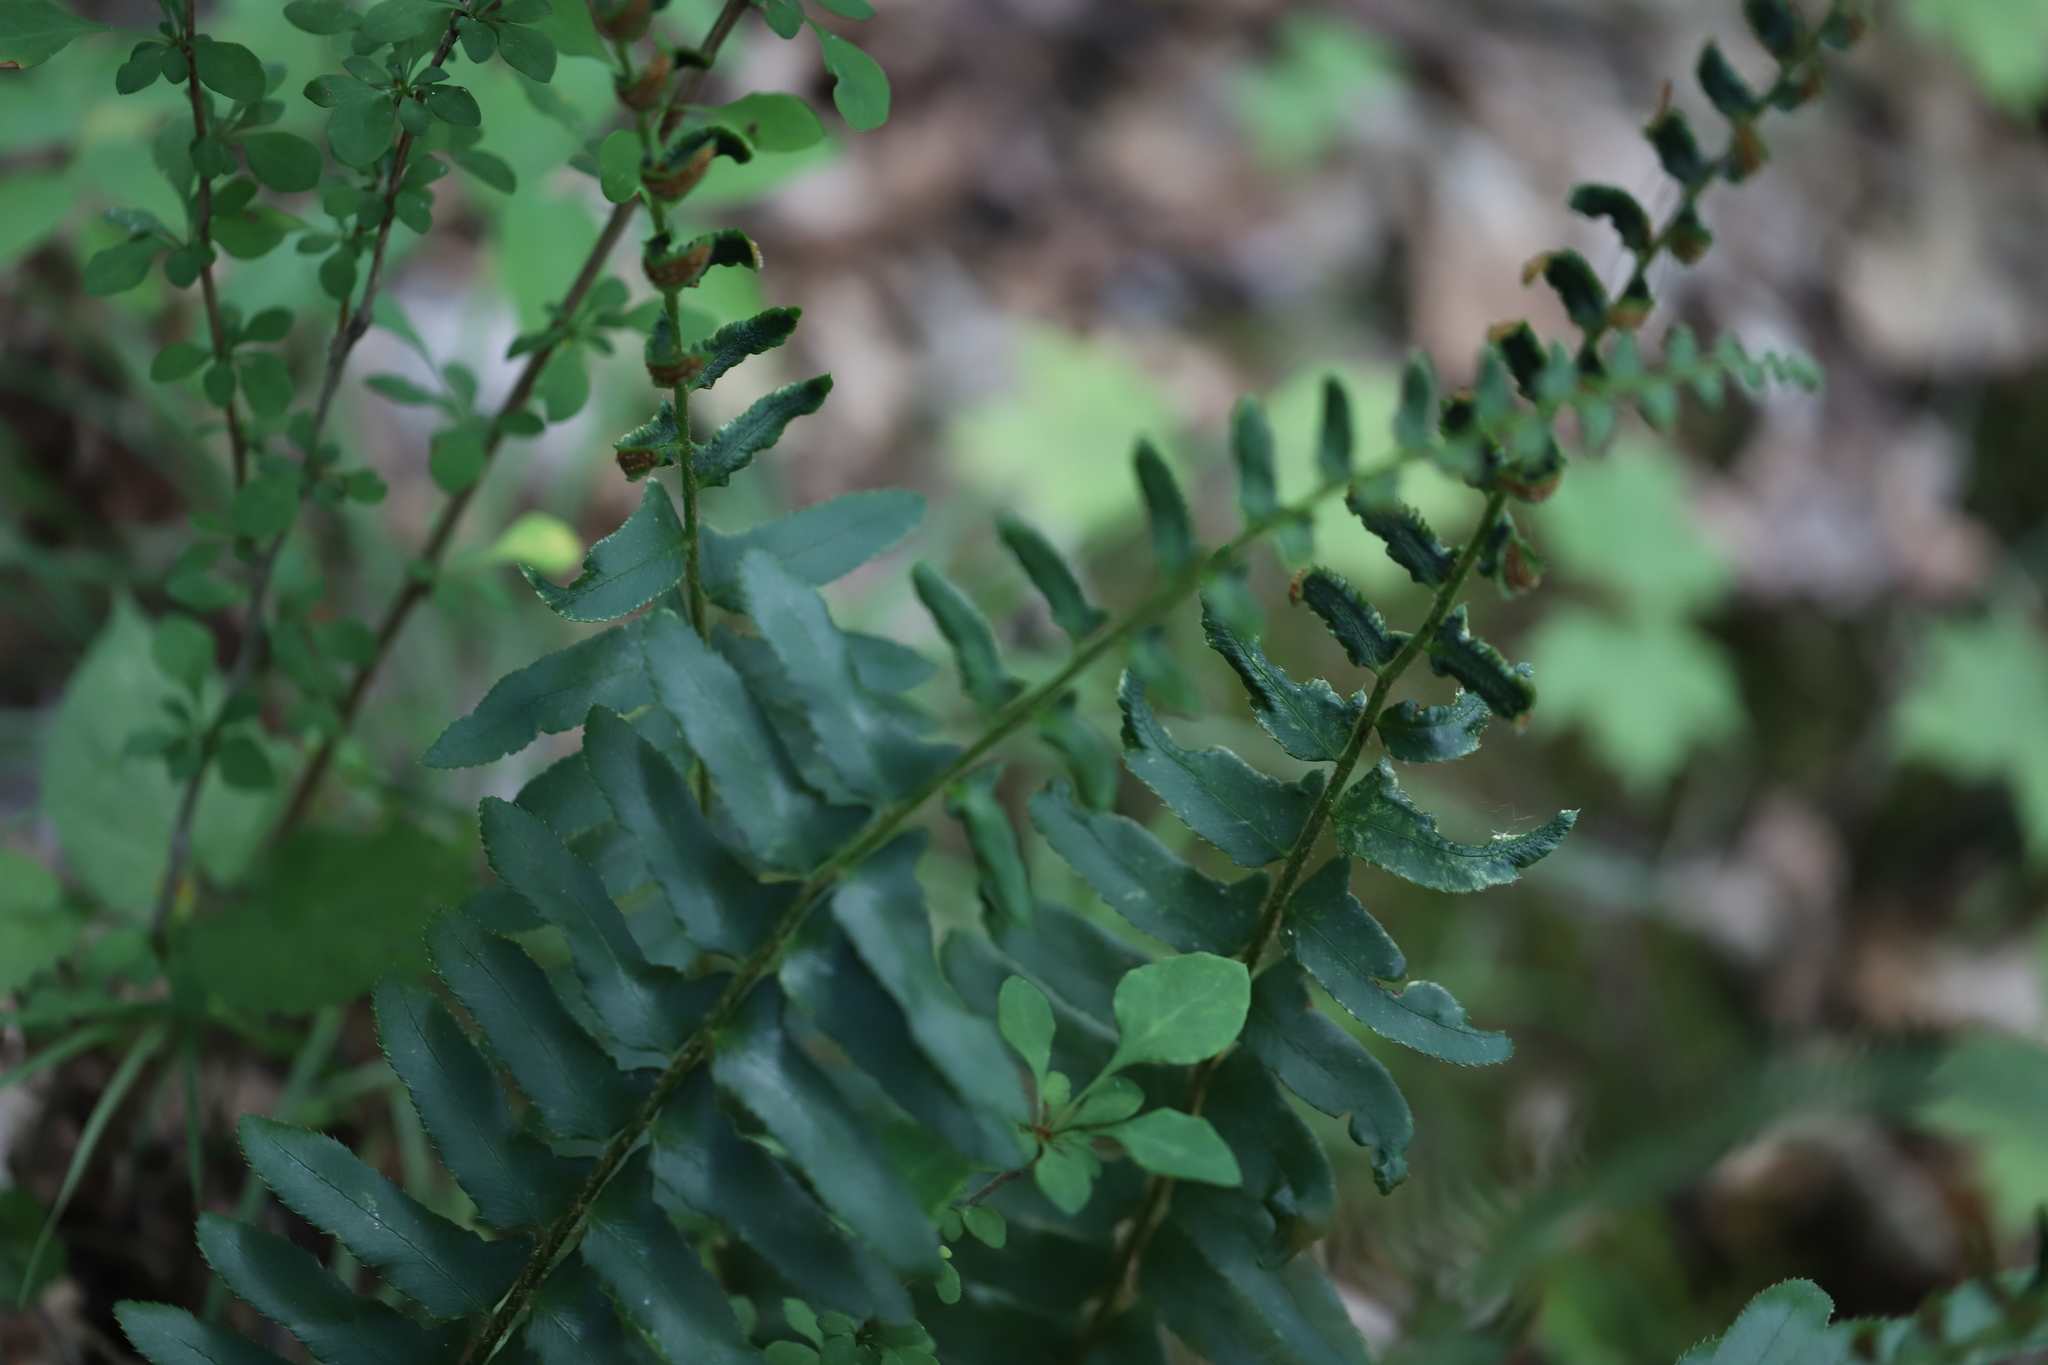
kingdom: Plantae
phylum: Tracheophyta
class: Polypodiopsida
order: Polypodiales
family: Dryopteridaceae
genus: Polystichum
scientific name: Polystichum acrostichoides
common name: Christmas fern
